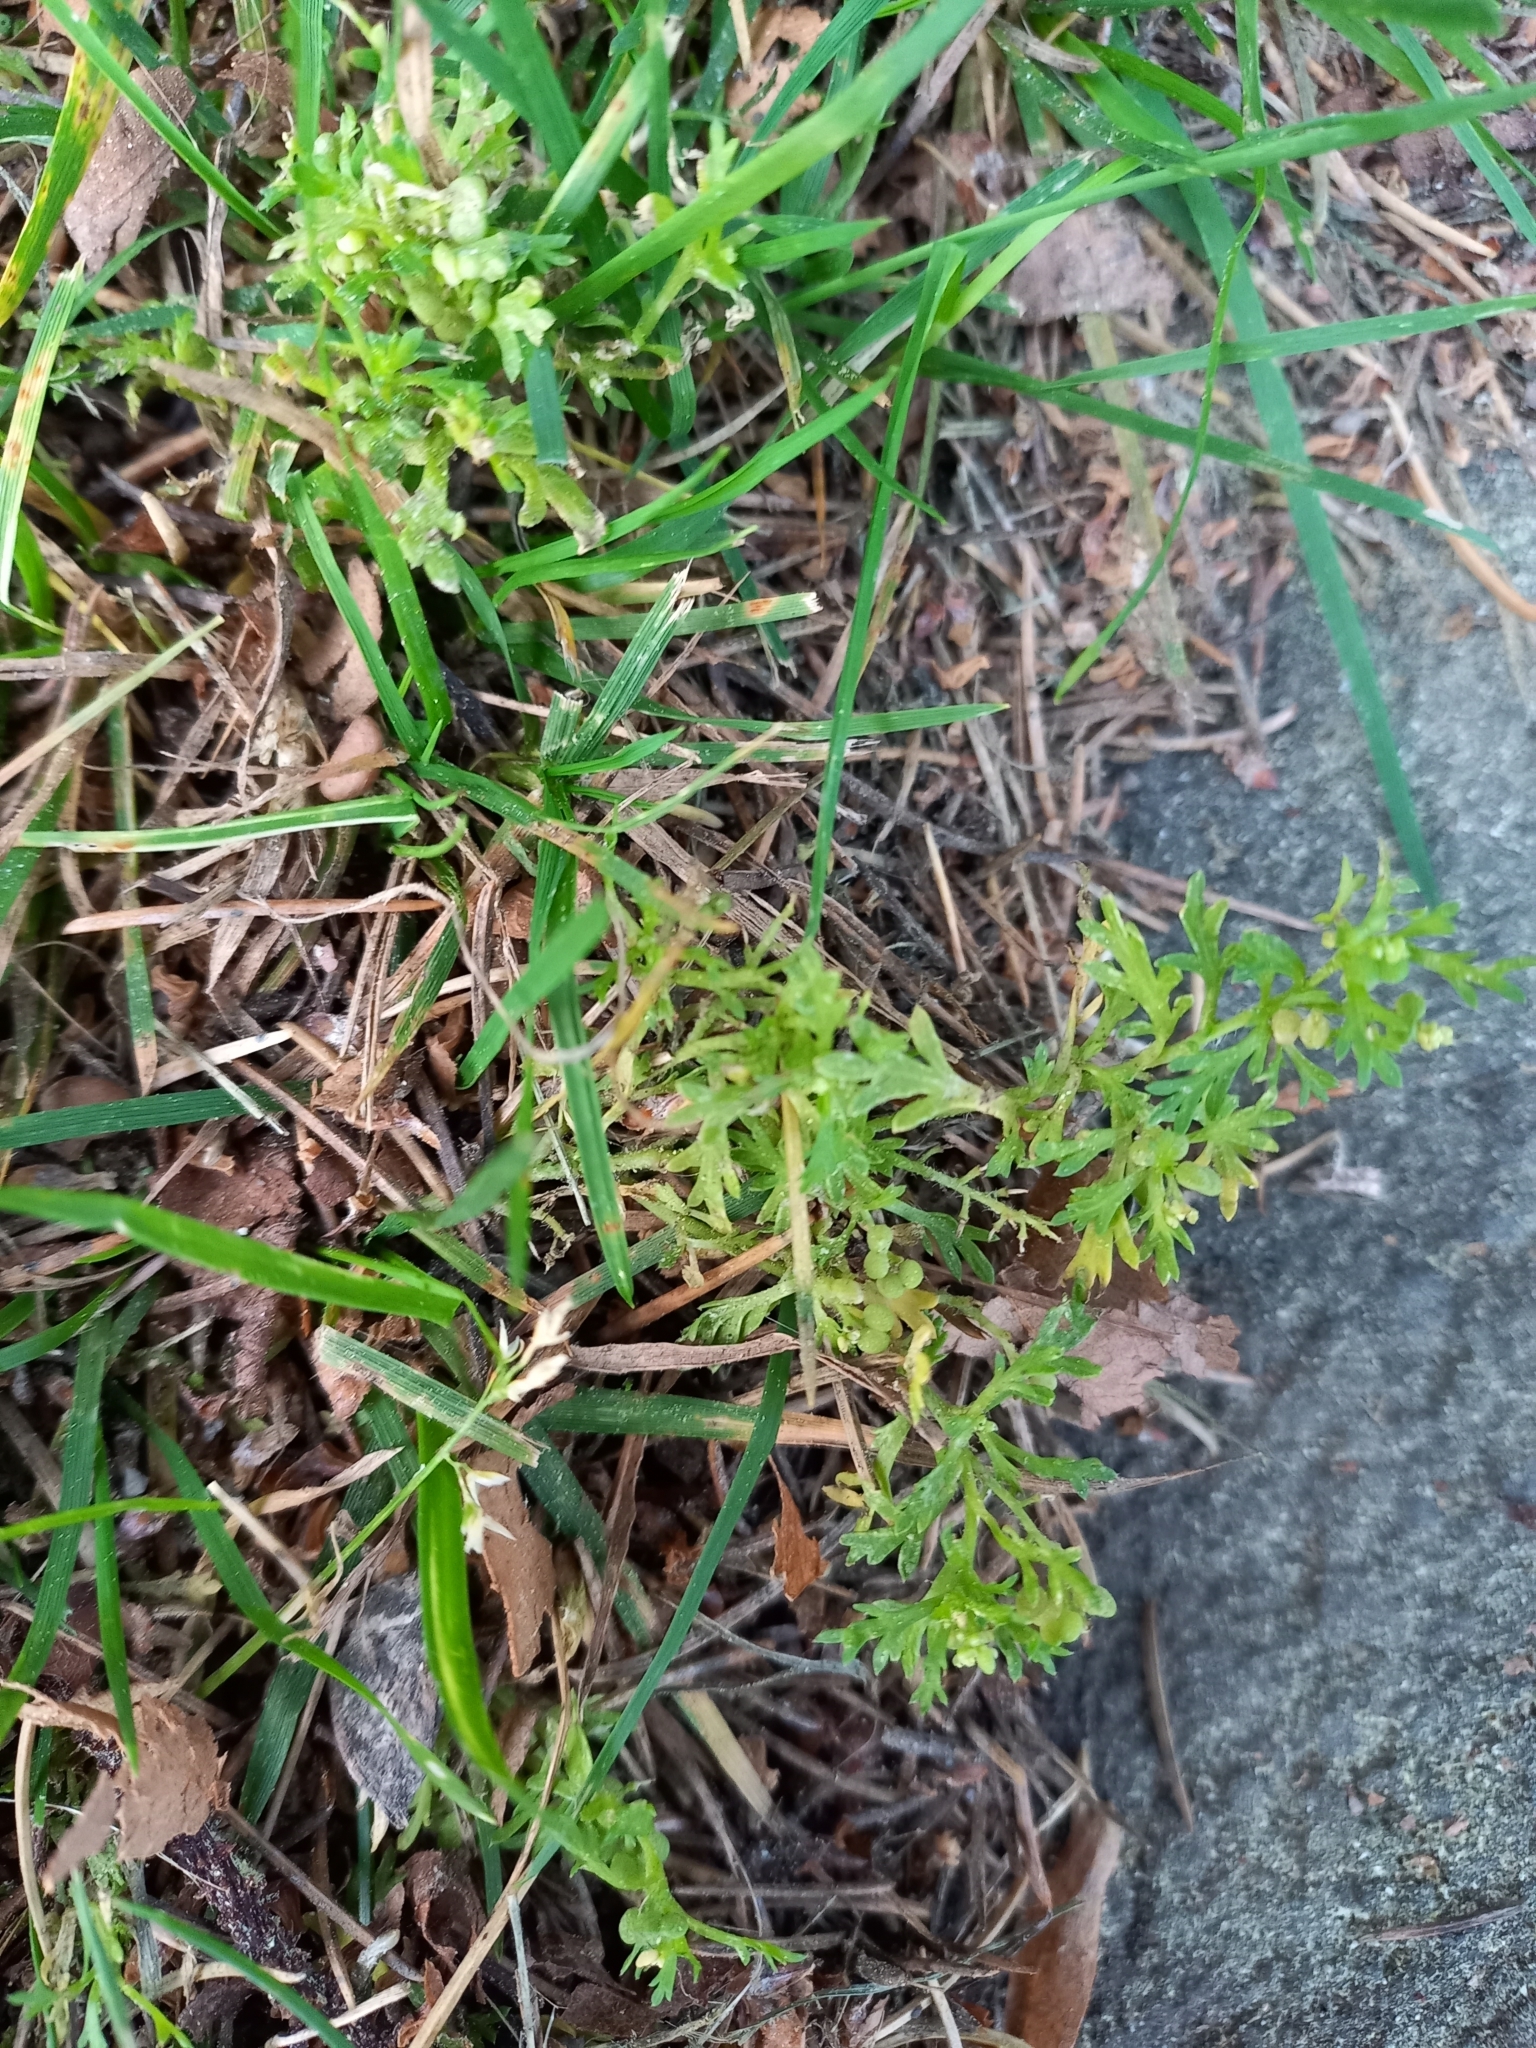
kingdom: Plantae
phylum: Tracheophyta
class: Magnoliopsida
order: Brassicales
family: Brassicaceae
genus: Lepidium
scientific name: Lepidium didymum
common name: Lesser swinecress
